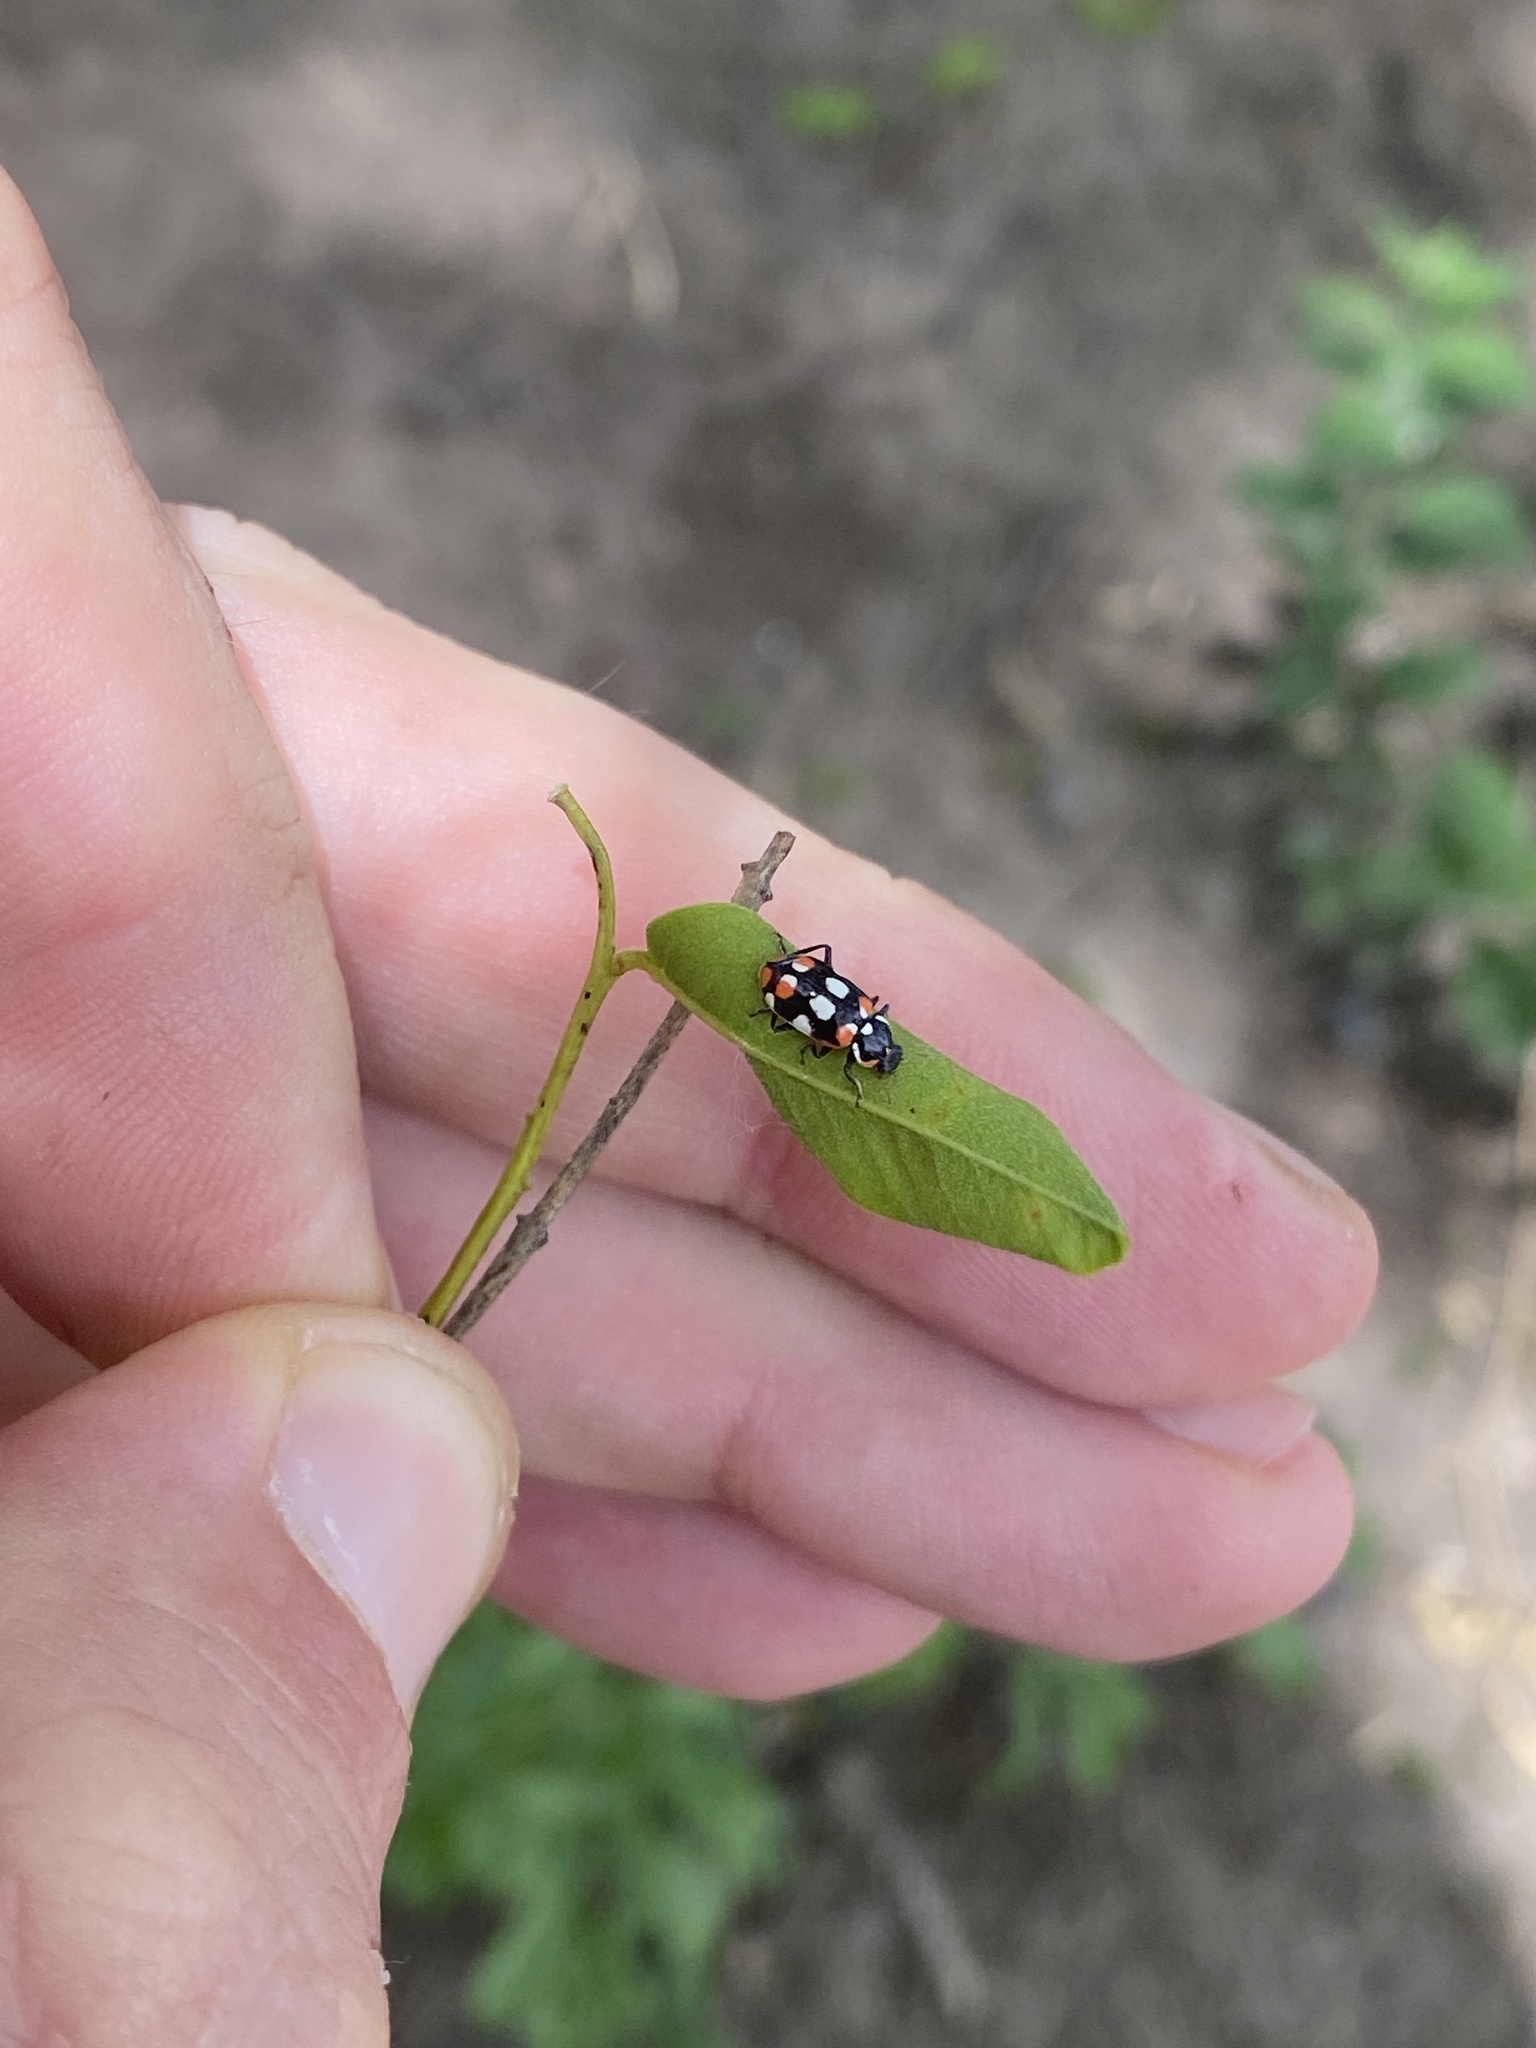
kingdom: Animalia
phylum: Arthropoda
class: Insecta
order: Coleoptera
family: Coccinellidae
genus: Eriopis
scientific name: Eriopis connexa
